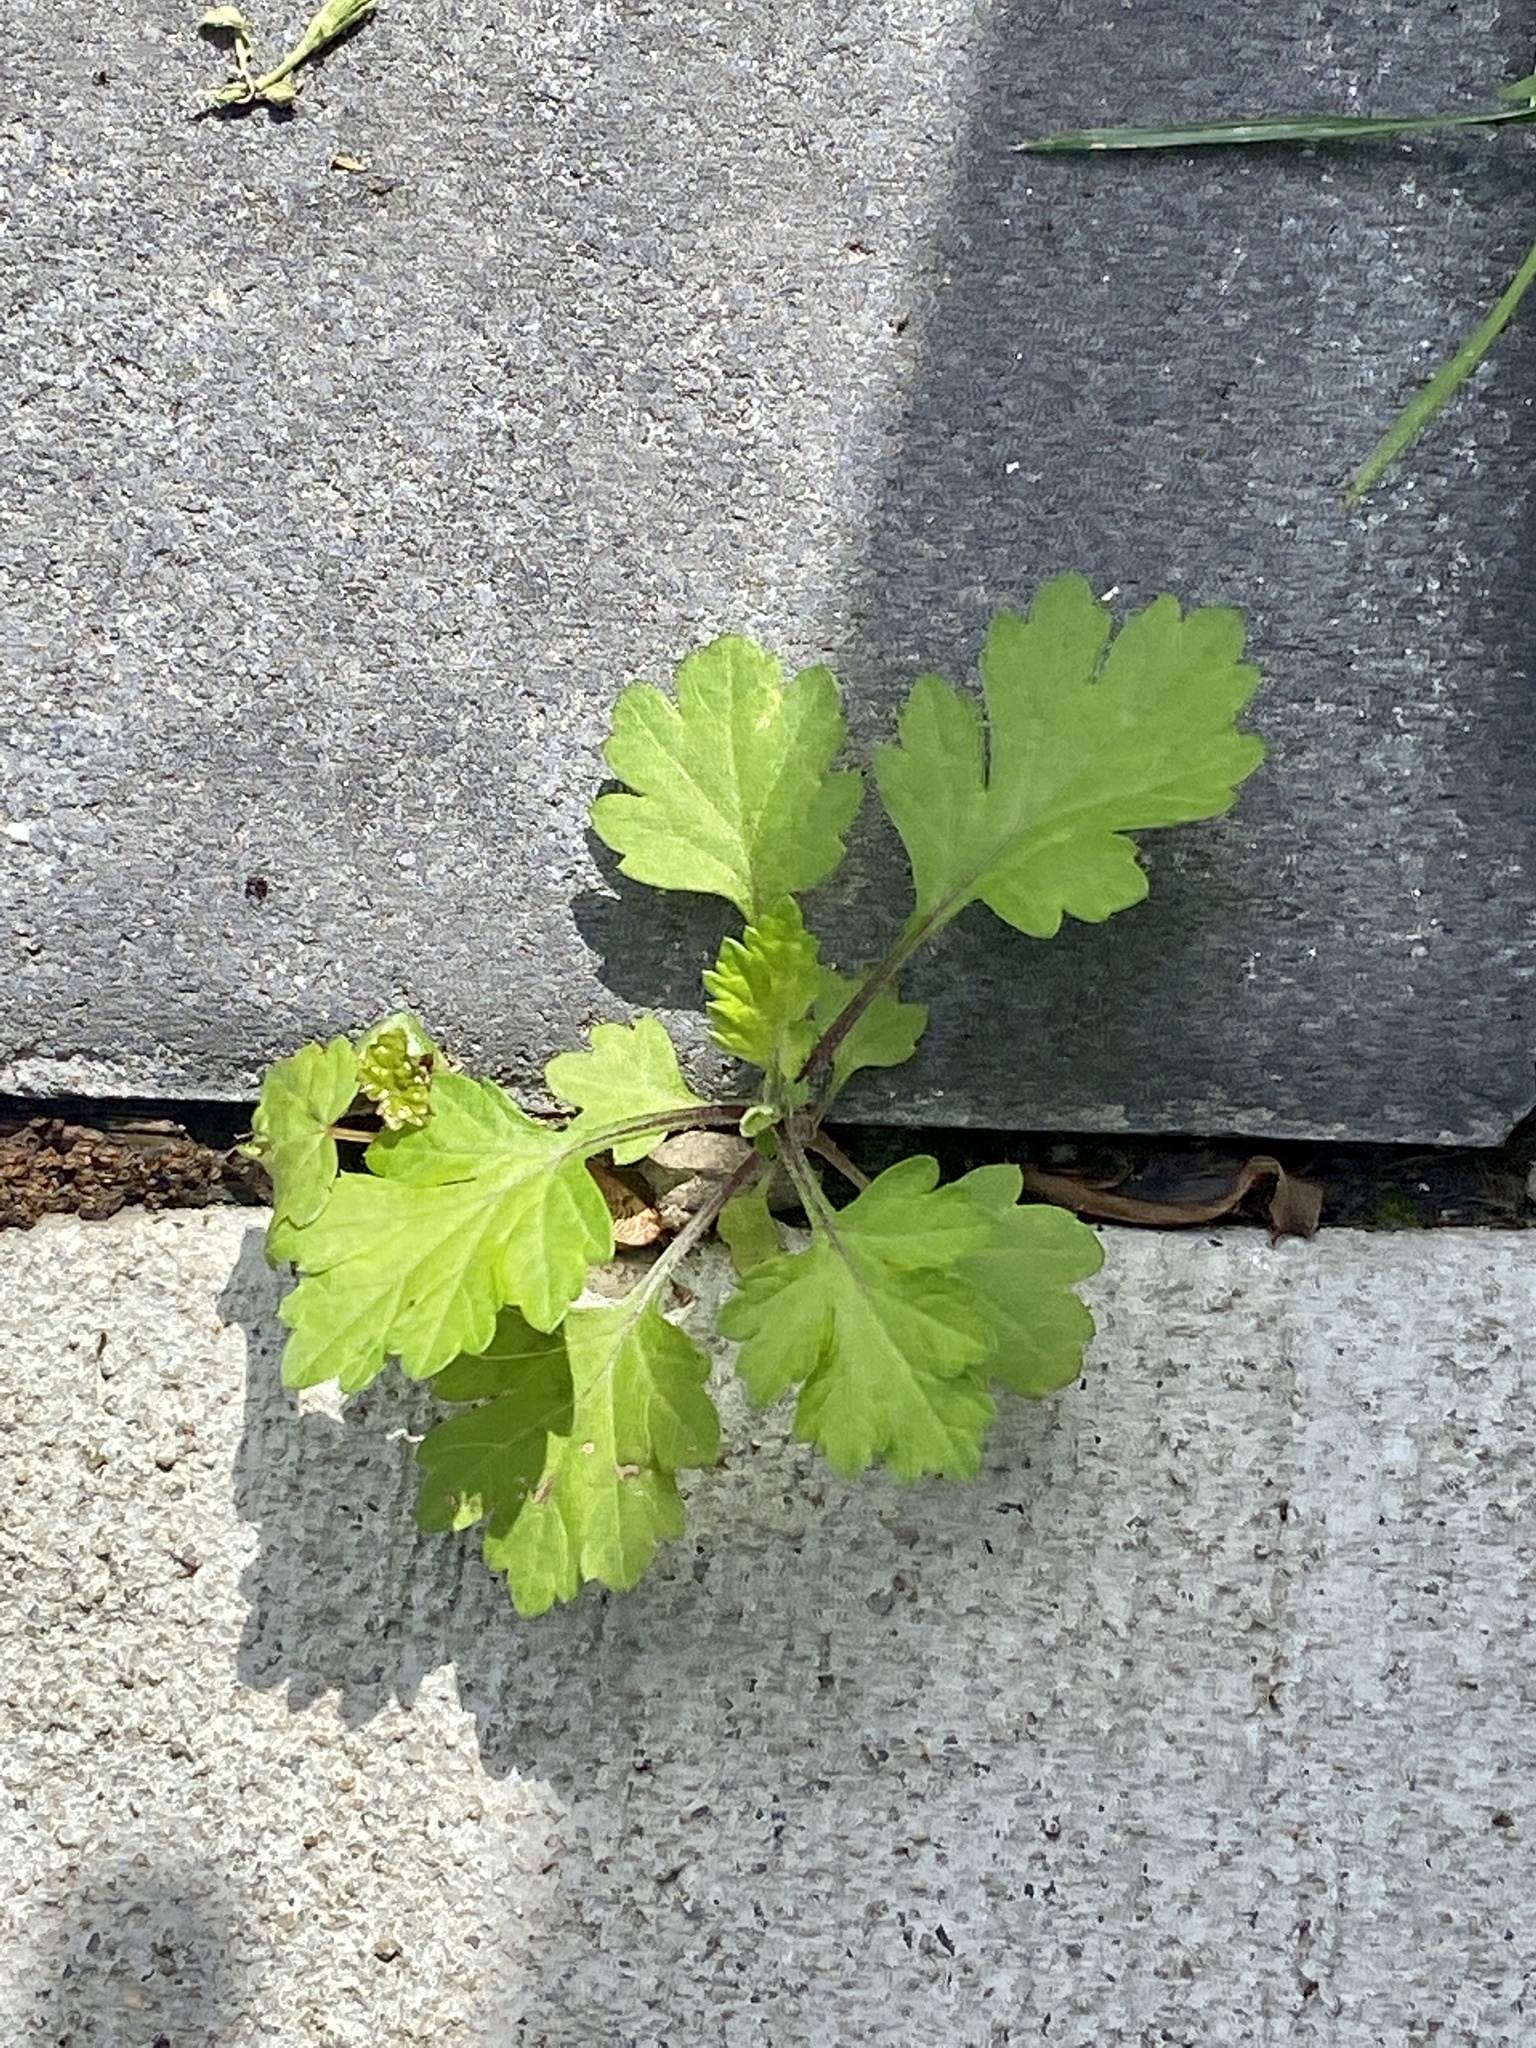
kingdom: Plantae
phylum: Tracheophyta
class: Magnoliopsida
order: Asterales
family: Asteraceae
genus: Artemisia
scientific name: Artemisia vulgaris
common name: Mugwort
